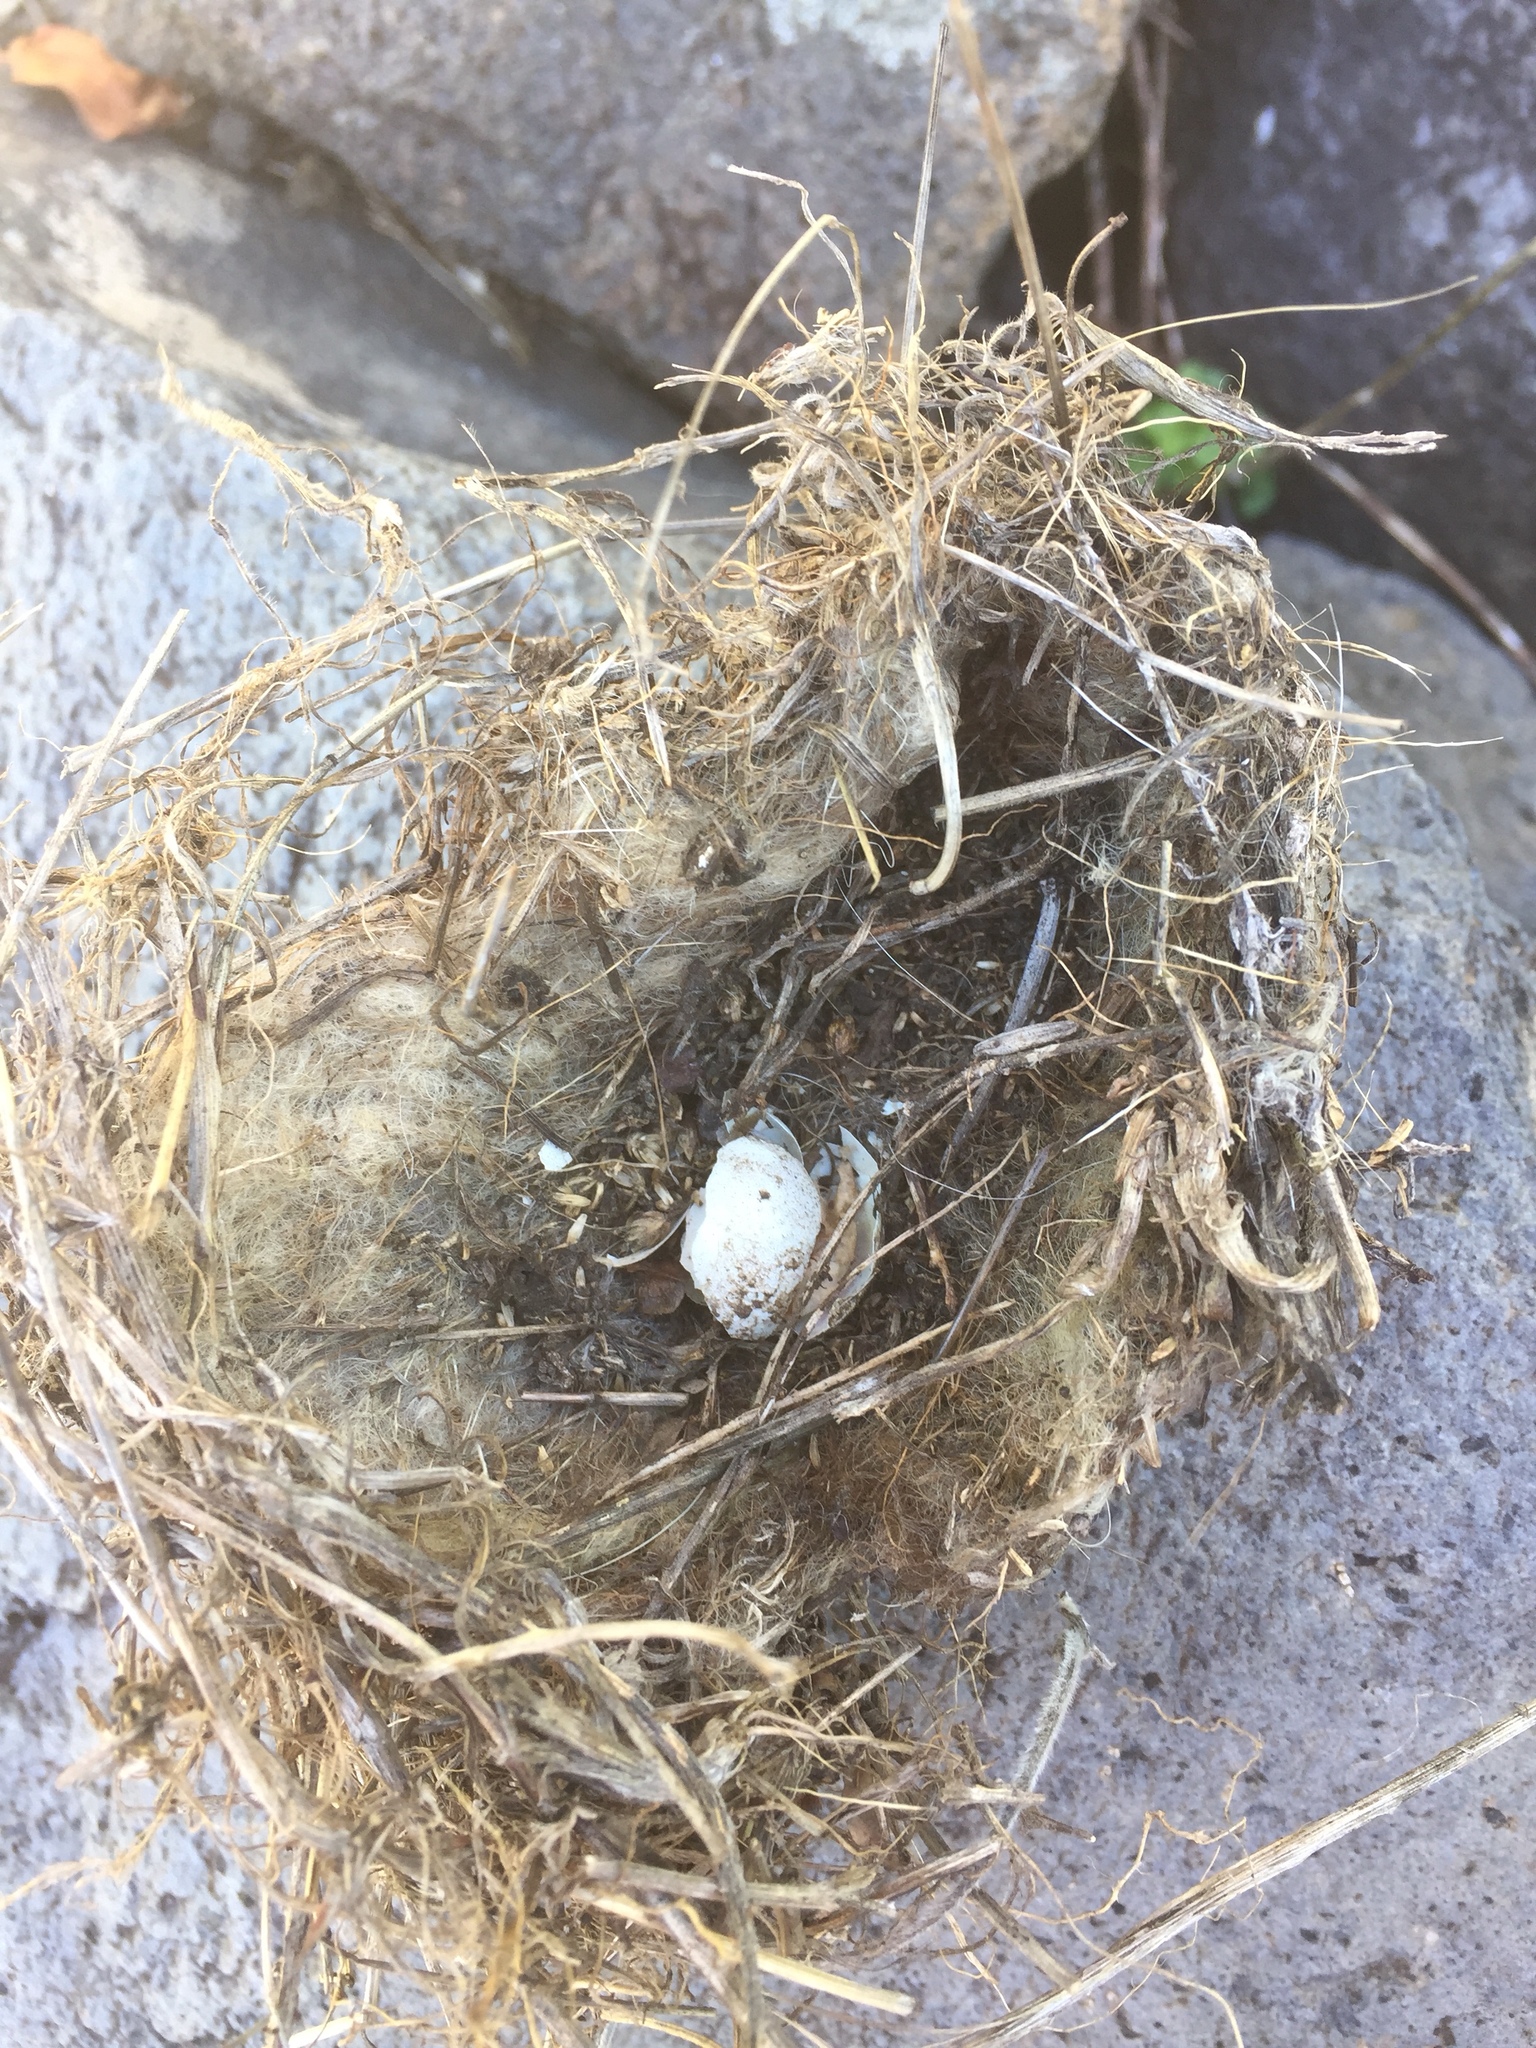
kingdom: Animalia
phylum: Chordata
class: Aves
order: Passeriformes
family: Sylviidae
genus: Sylvia
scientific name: Sylvia atricapilla
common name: Eurasian blackcap
